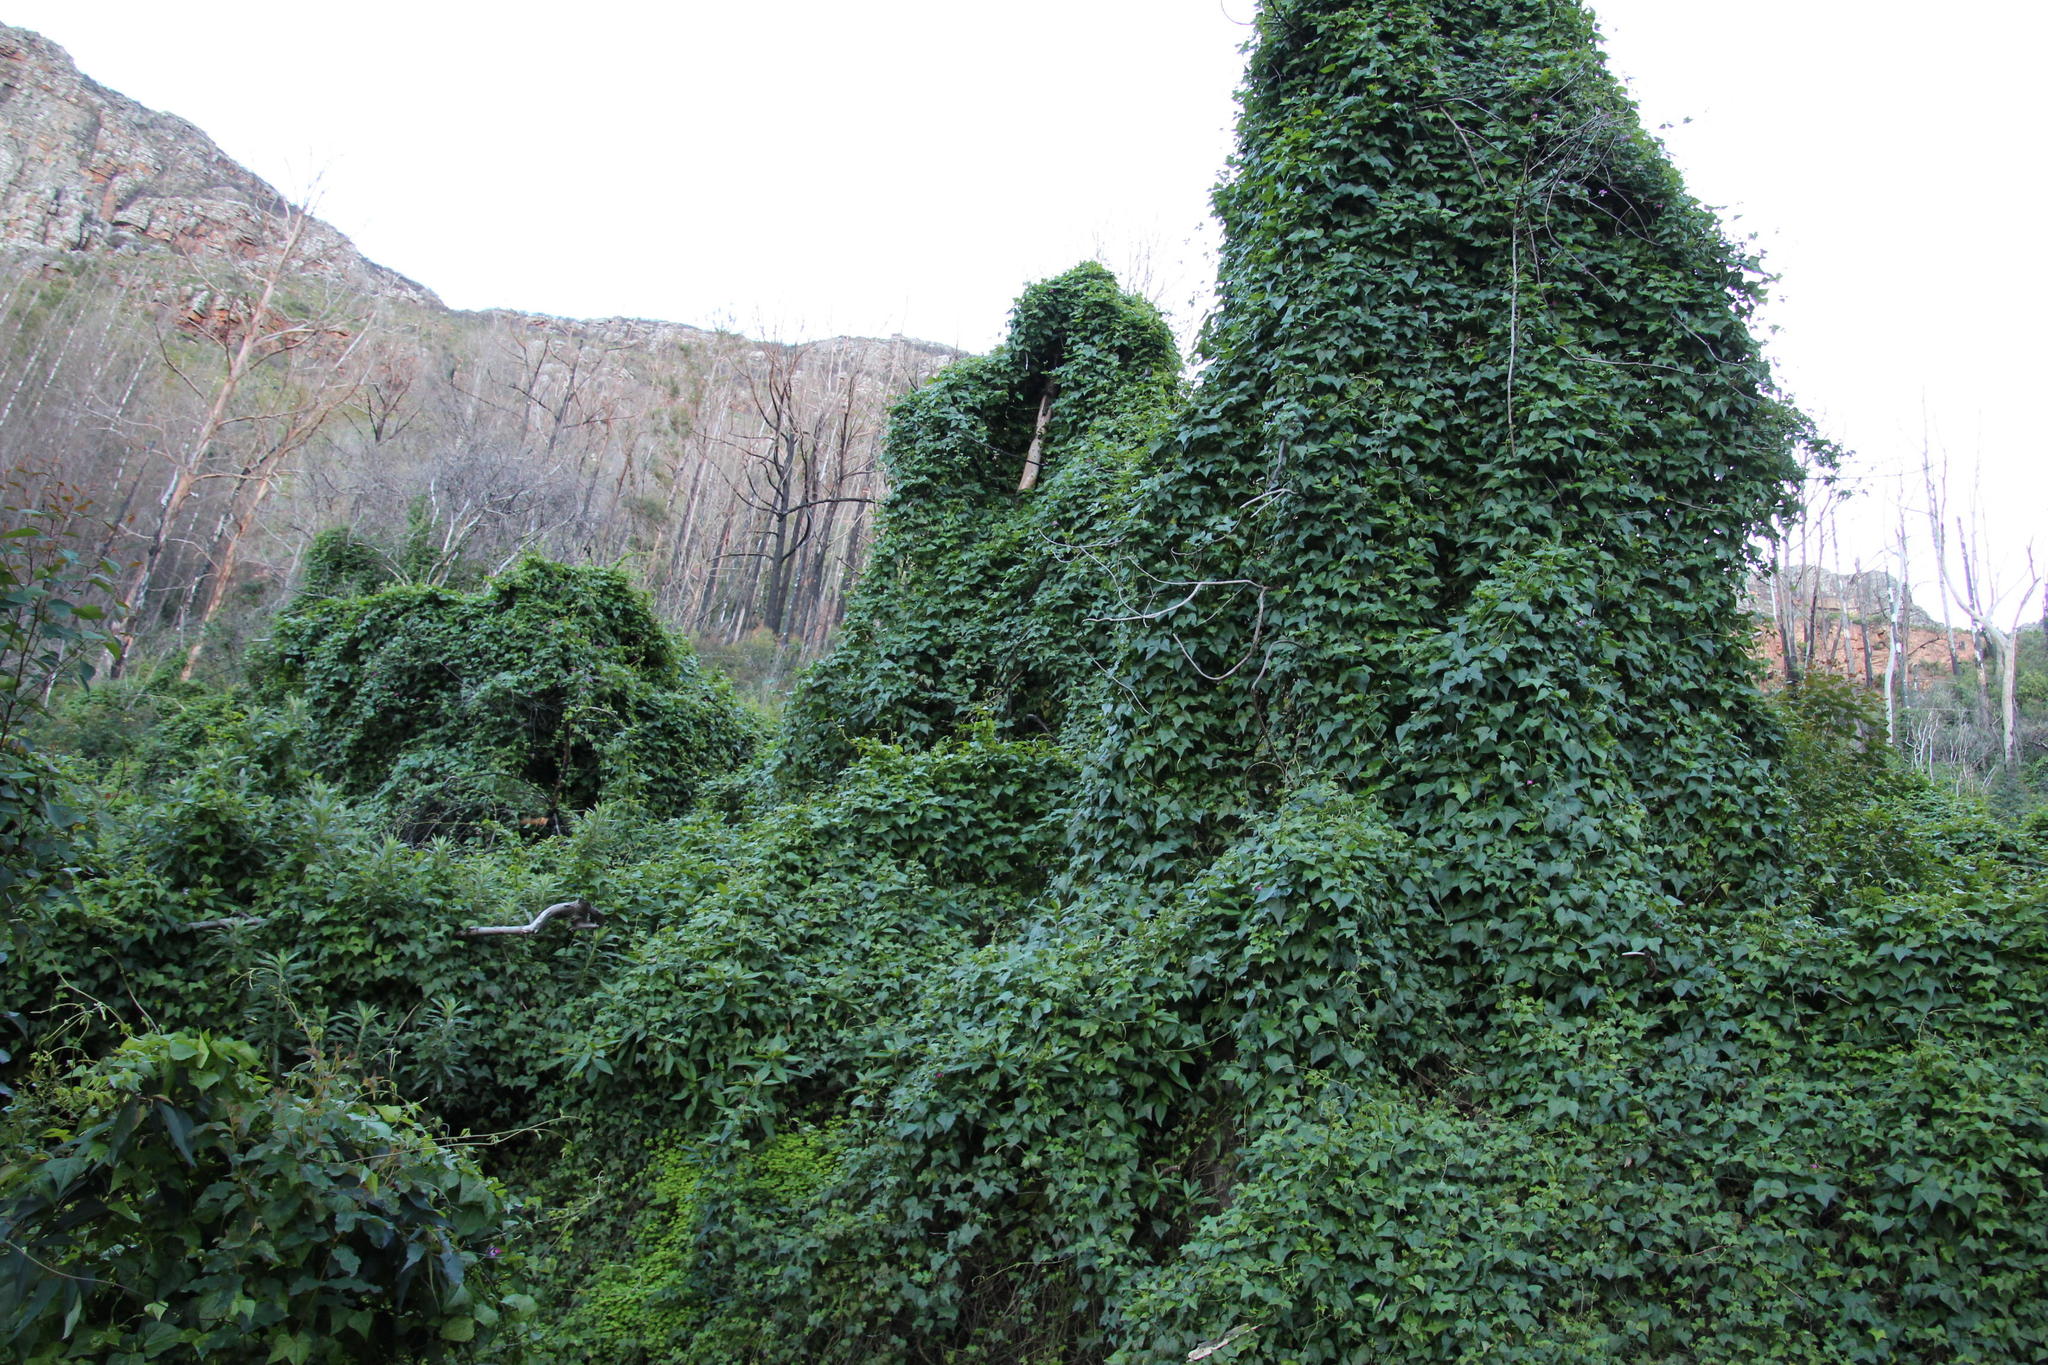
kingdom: Plantae
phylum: Tracheophyta
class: Magnoliopsida
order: Fabales
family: Fabaceae
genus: Dipogon
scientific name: Dipogon lignosus
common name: Okie bean
